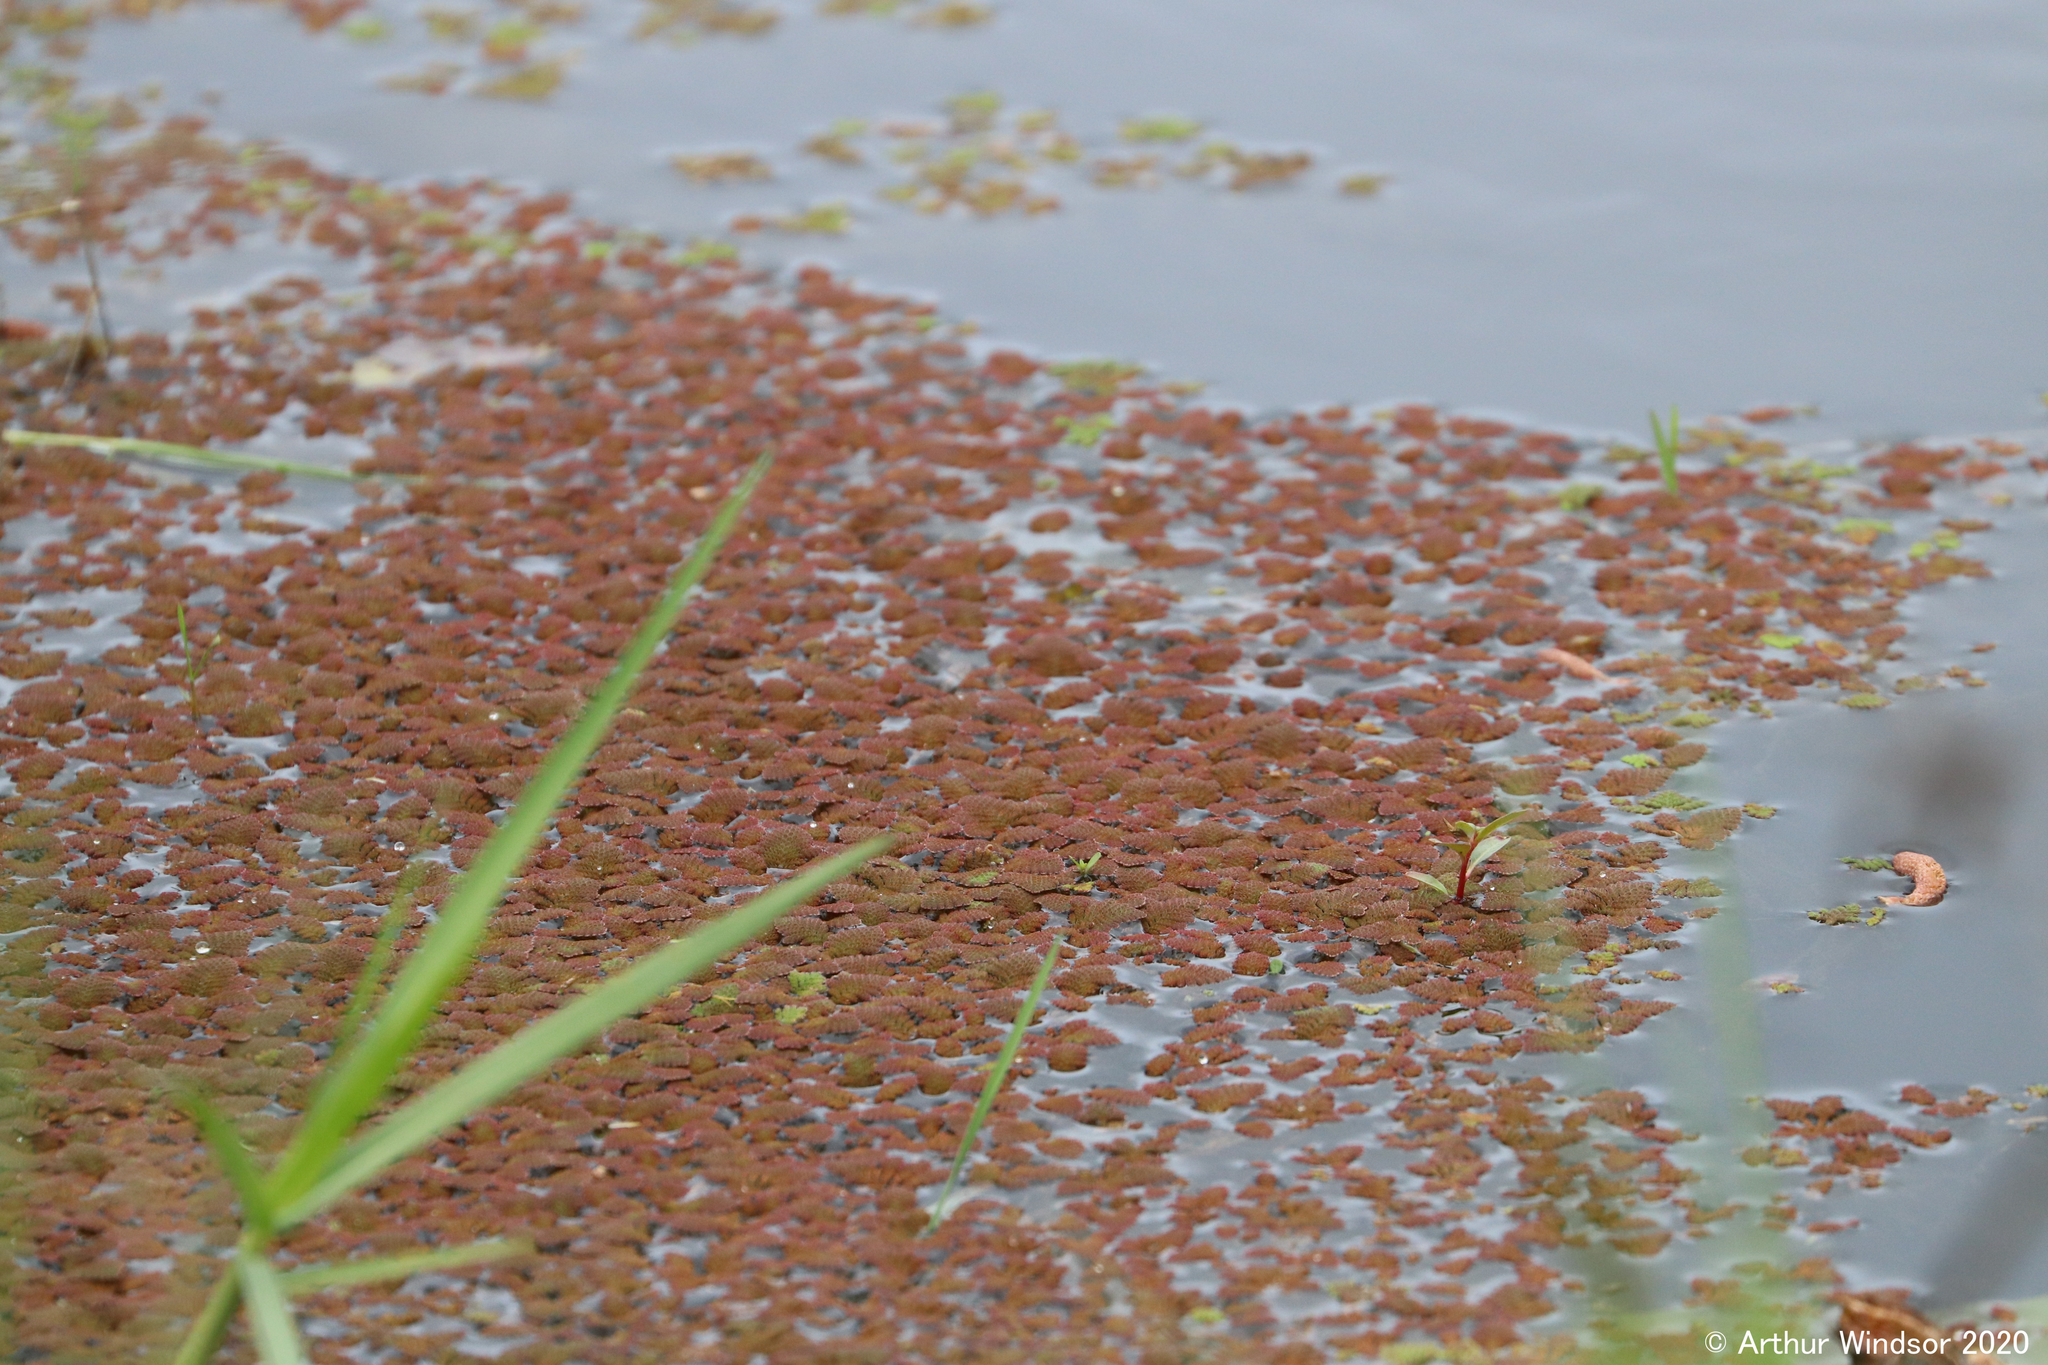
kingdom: Plantae
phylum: Tracheophyta
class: Polypodiopsida
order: Salviniales
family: Salviniaceae
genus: Azolla
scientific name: Azolla filiculoides
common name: Water fern
